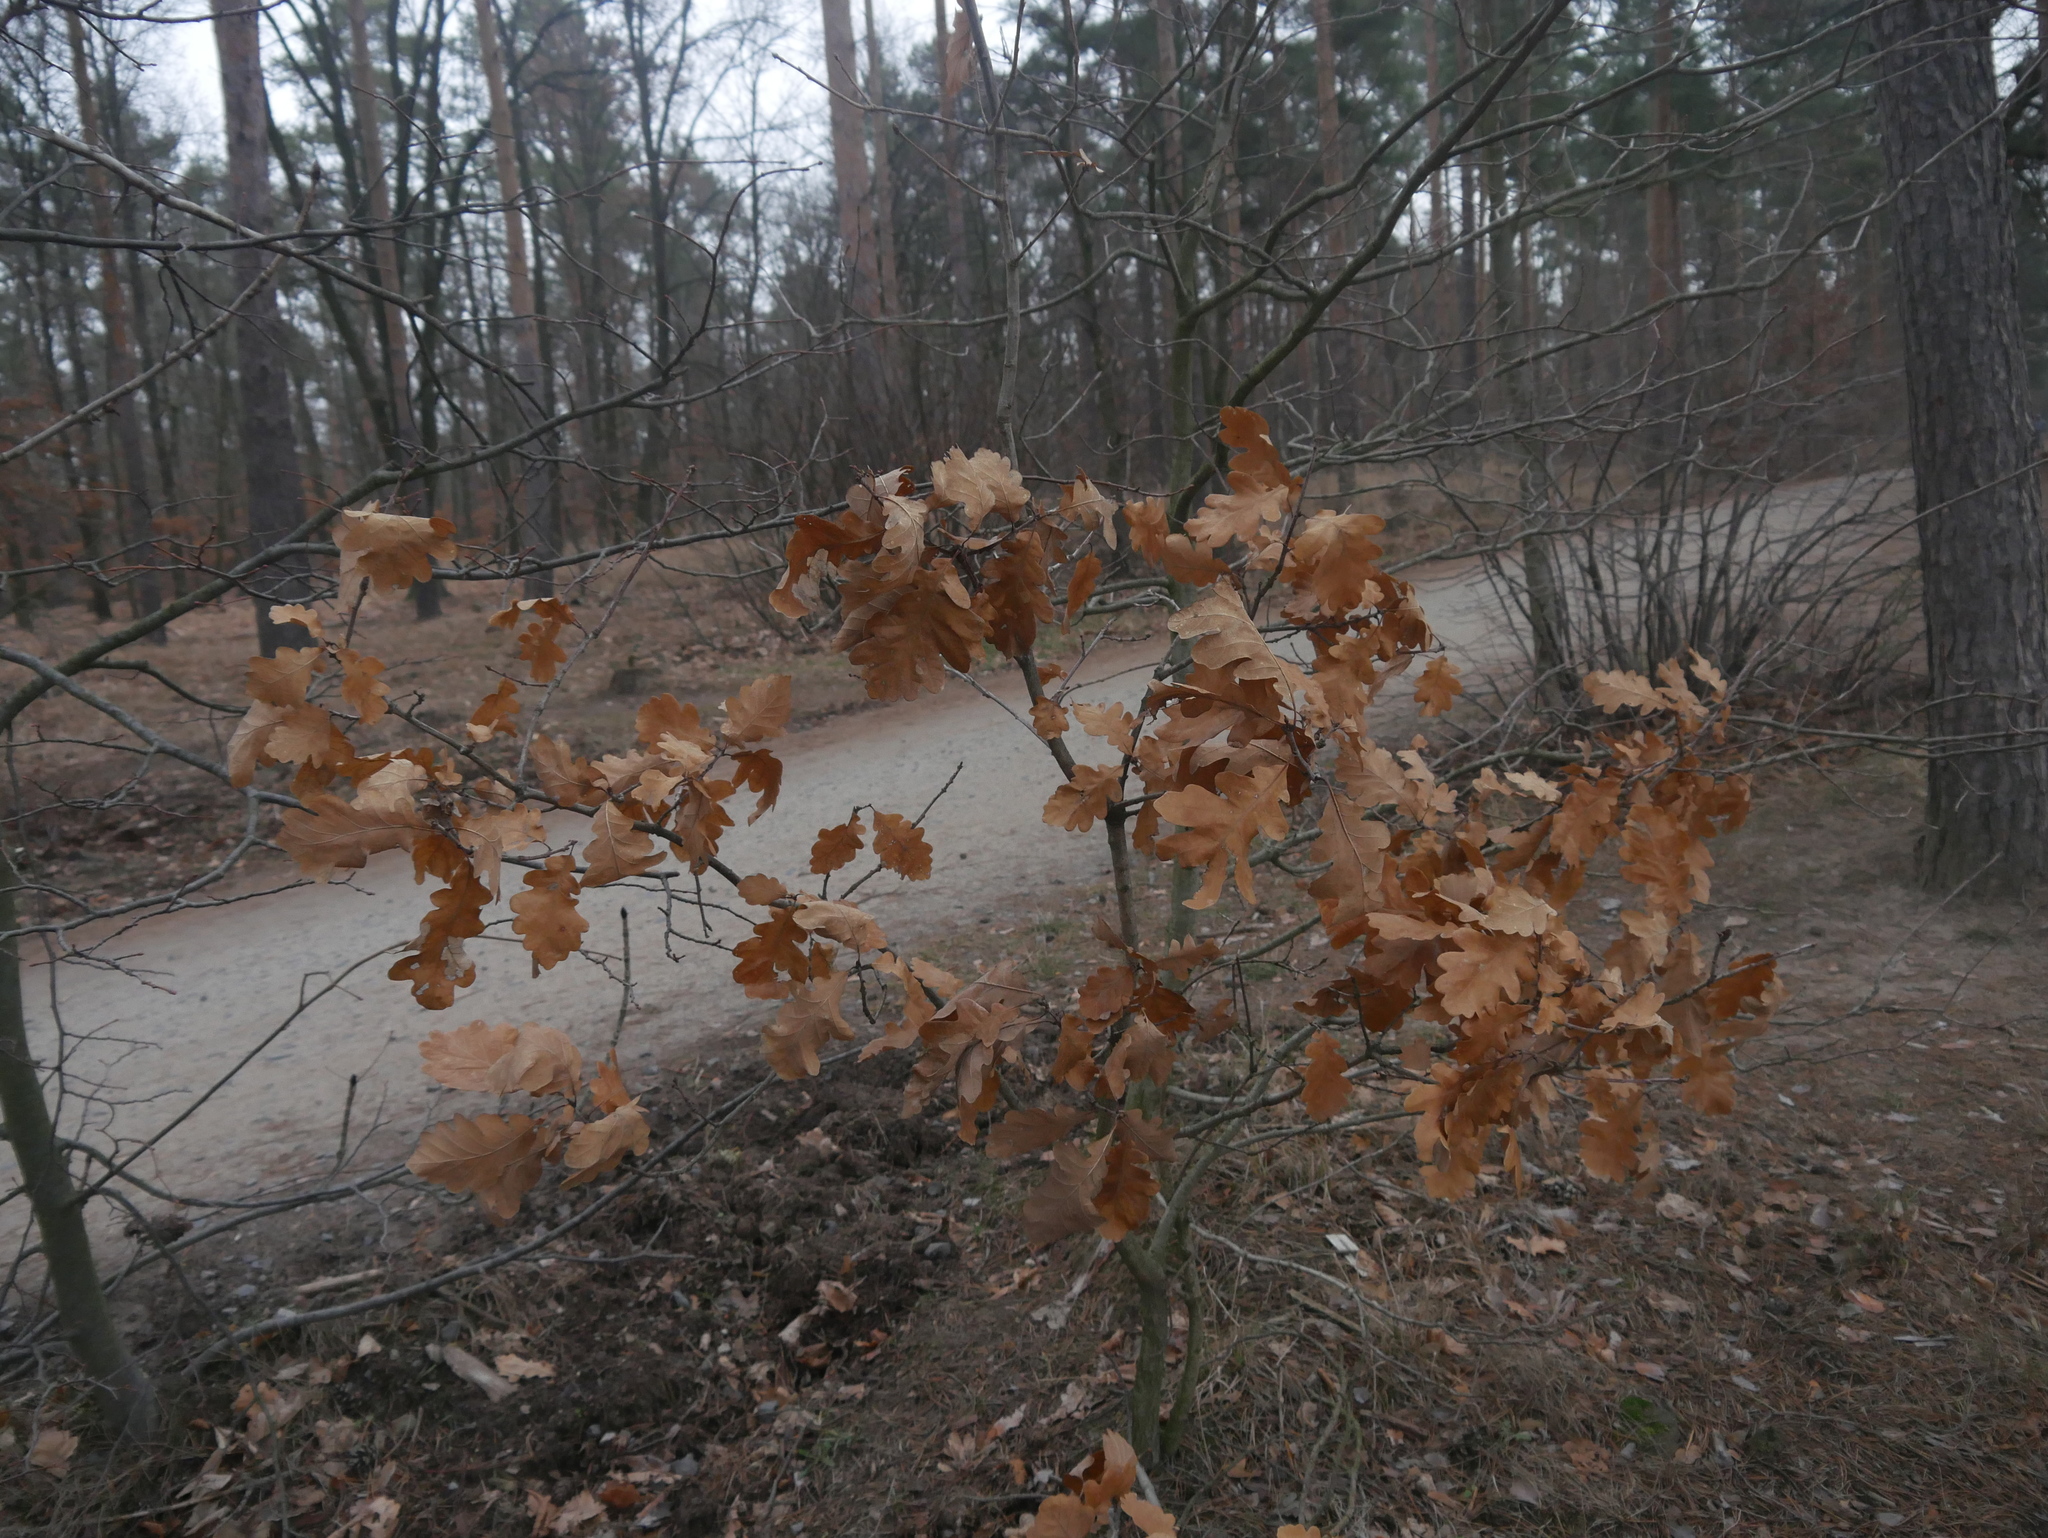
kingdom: Plantae
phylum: Tracheophyta
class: Magnoliopsida
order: Fagales
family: Fagaceae
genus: Quercus
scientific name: Quercus robur
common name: Pedunculate oak
